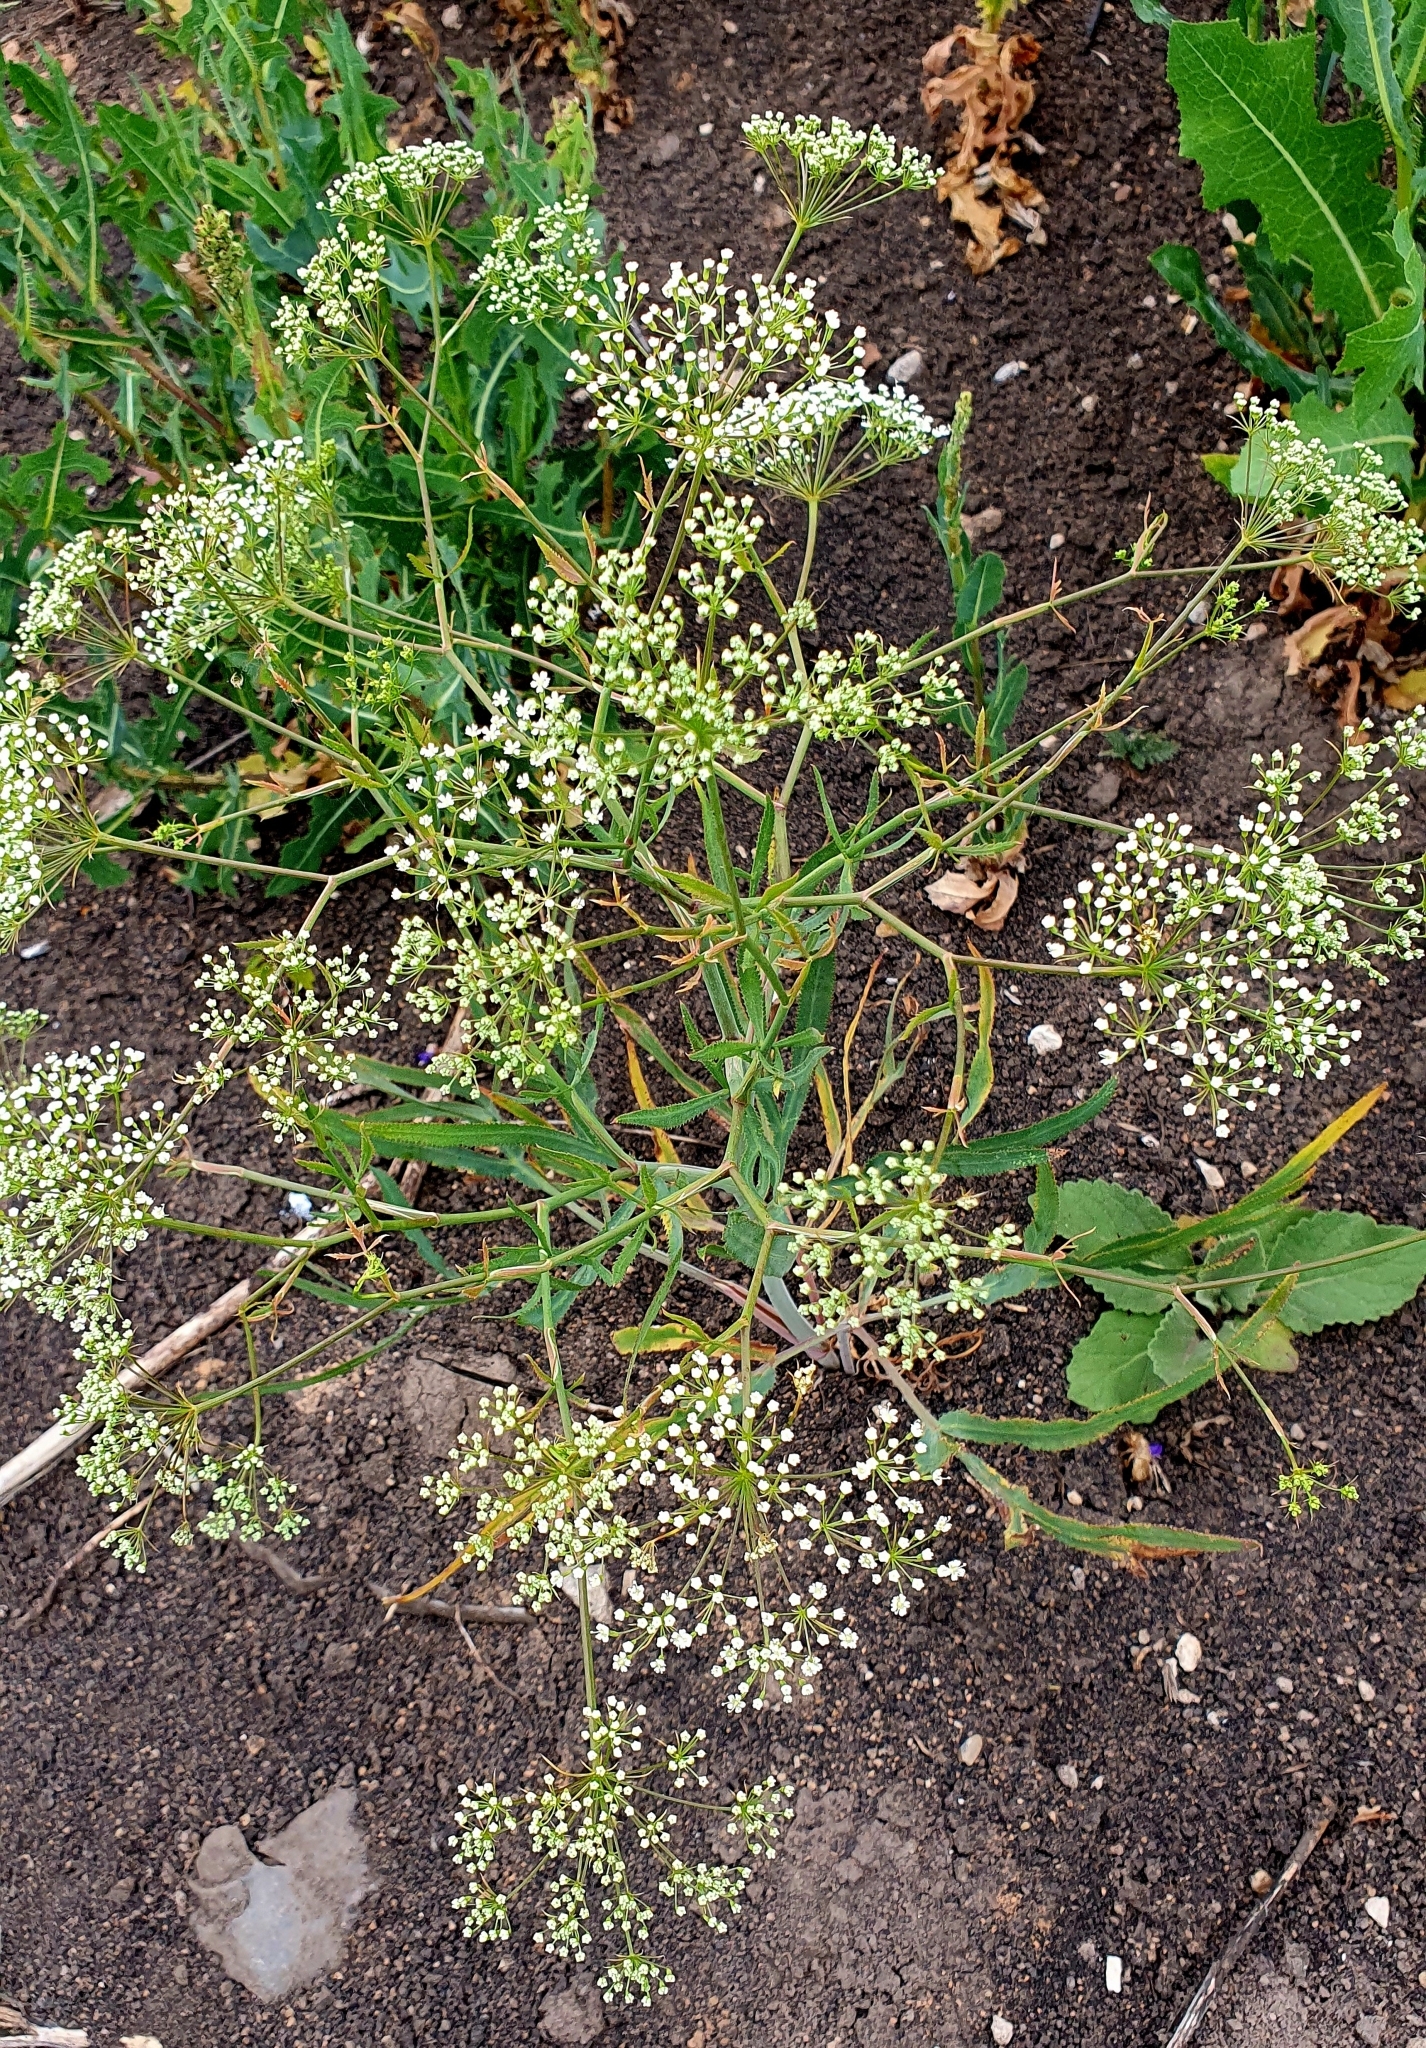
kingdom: Plantae
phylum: Tracheophyta
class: Magnoliopsida
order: Apiales
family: Apiaceae
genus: Falcaria
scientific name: Falcaria vulgaris
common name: Longleaf
